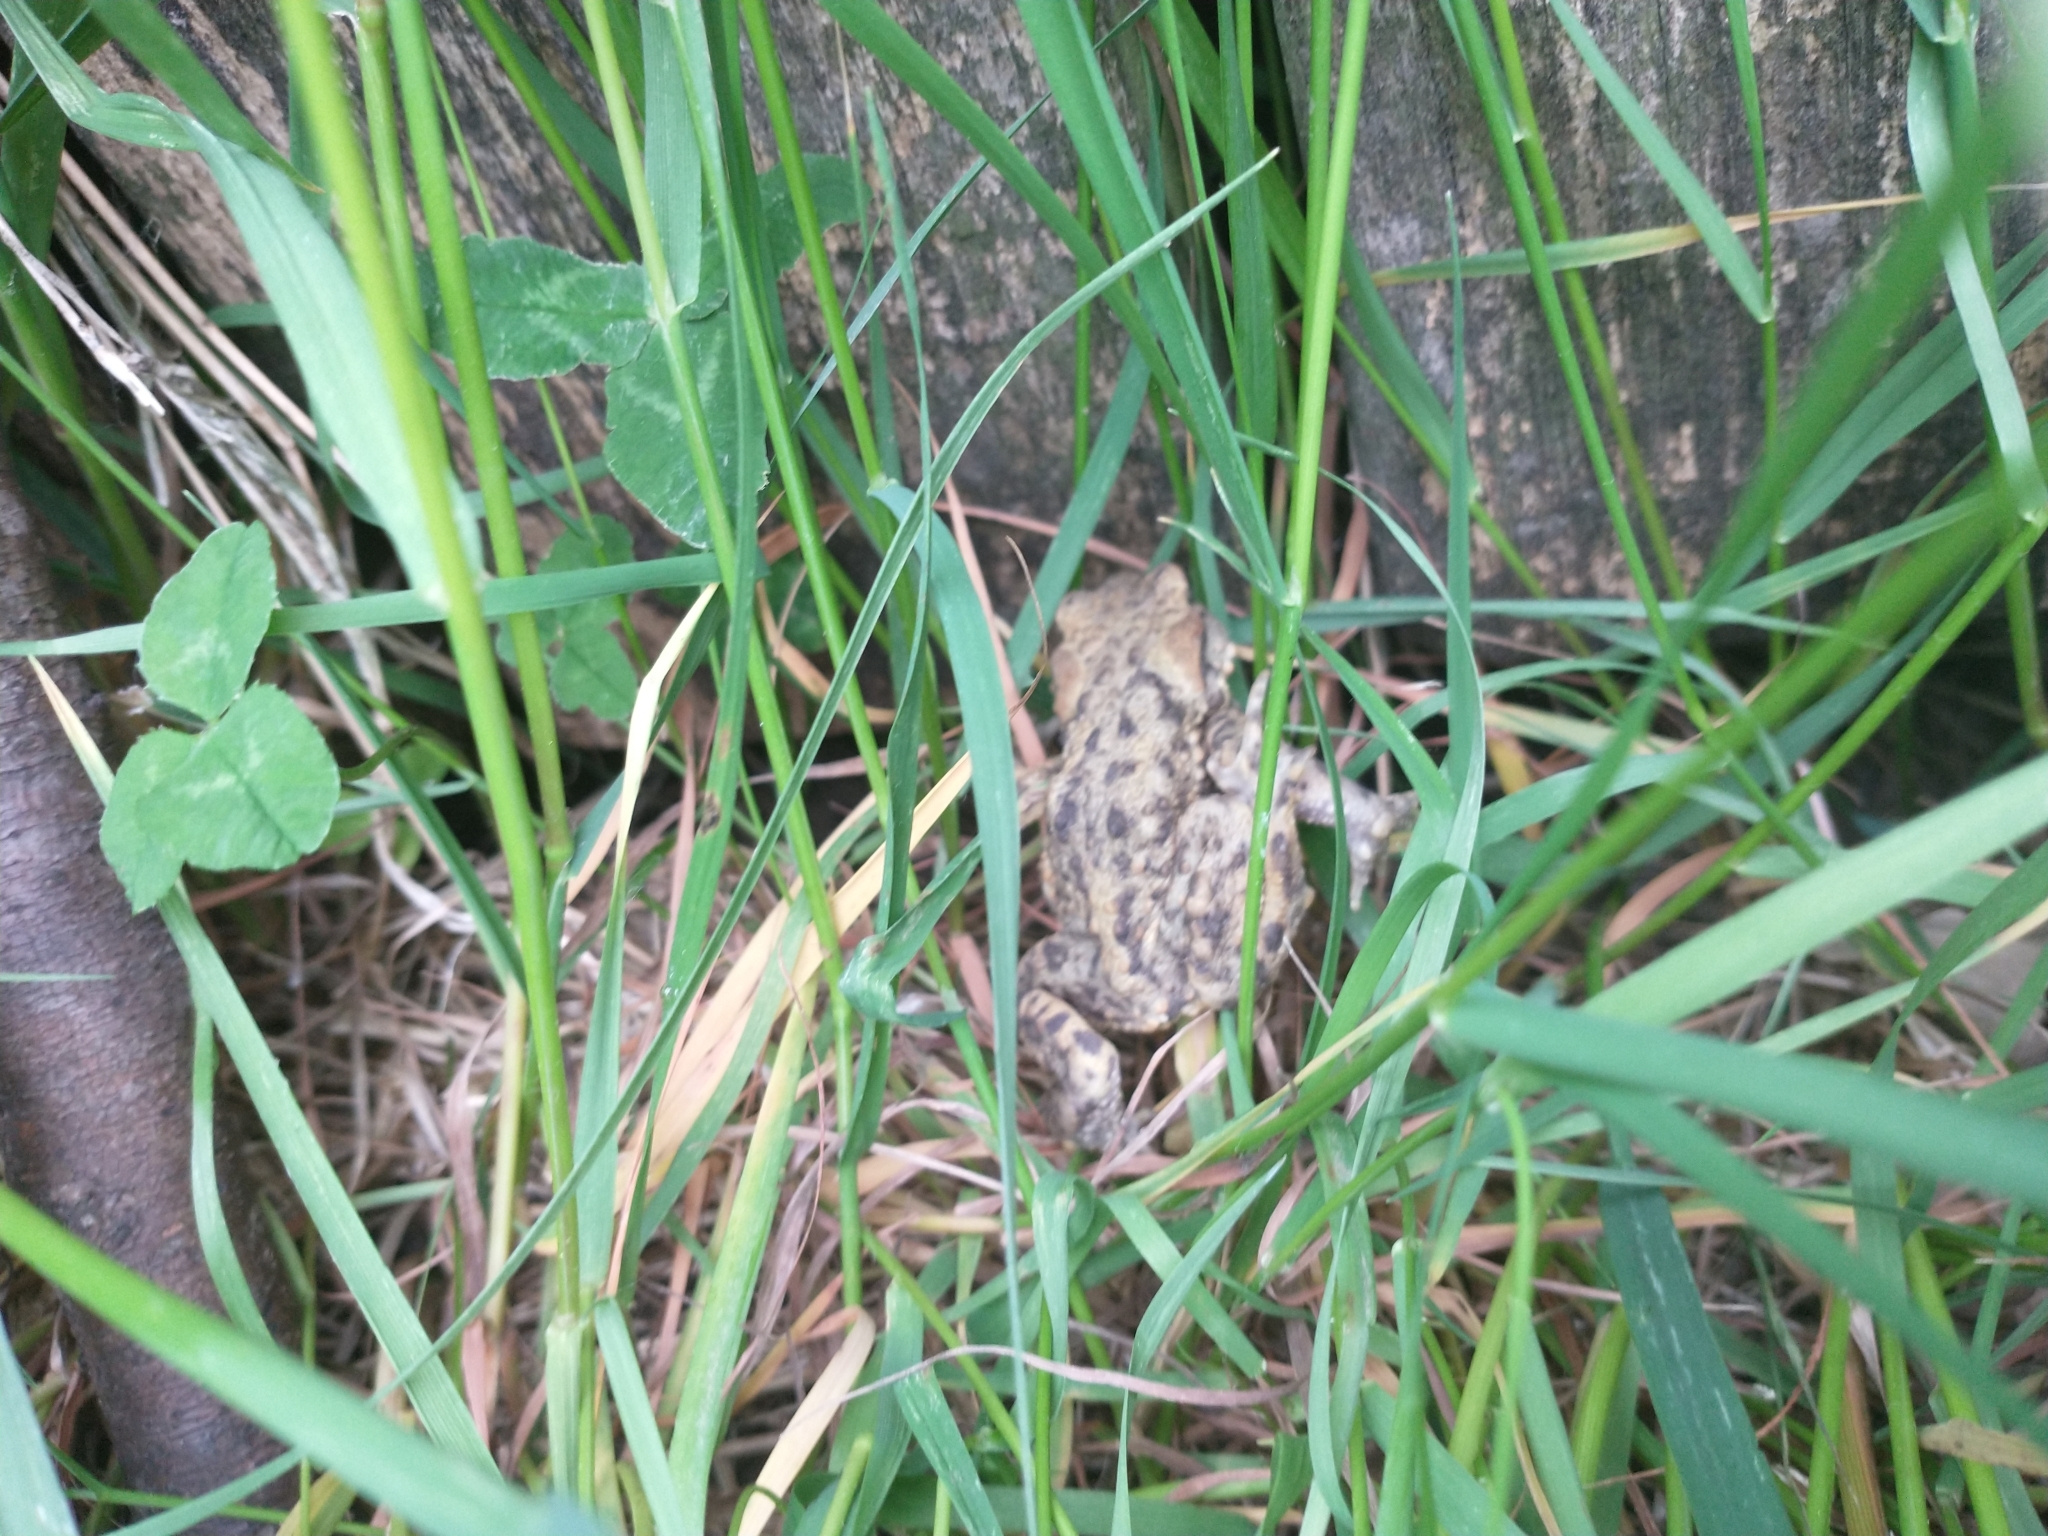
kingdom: Animalia
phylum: Chordata
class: Amphibia
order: Anura
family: Bufonidae
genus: Bufo
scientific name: Bufo bufo
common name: Common toad
